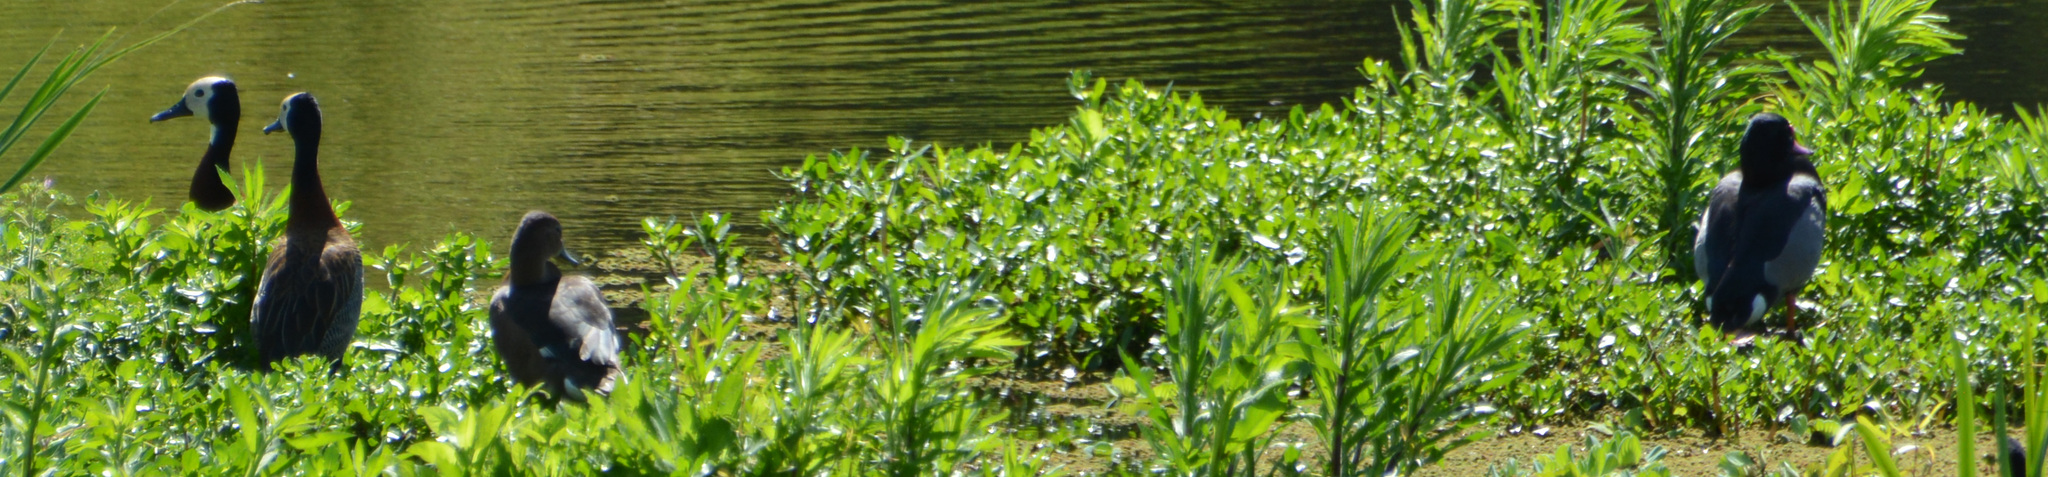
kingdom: Animalia
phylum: Chordata
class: Aves
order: Anseriformes
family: Anatidae
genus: Netta
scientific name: Netta peposaca
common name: Rosy-billed pochard
